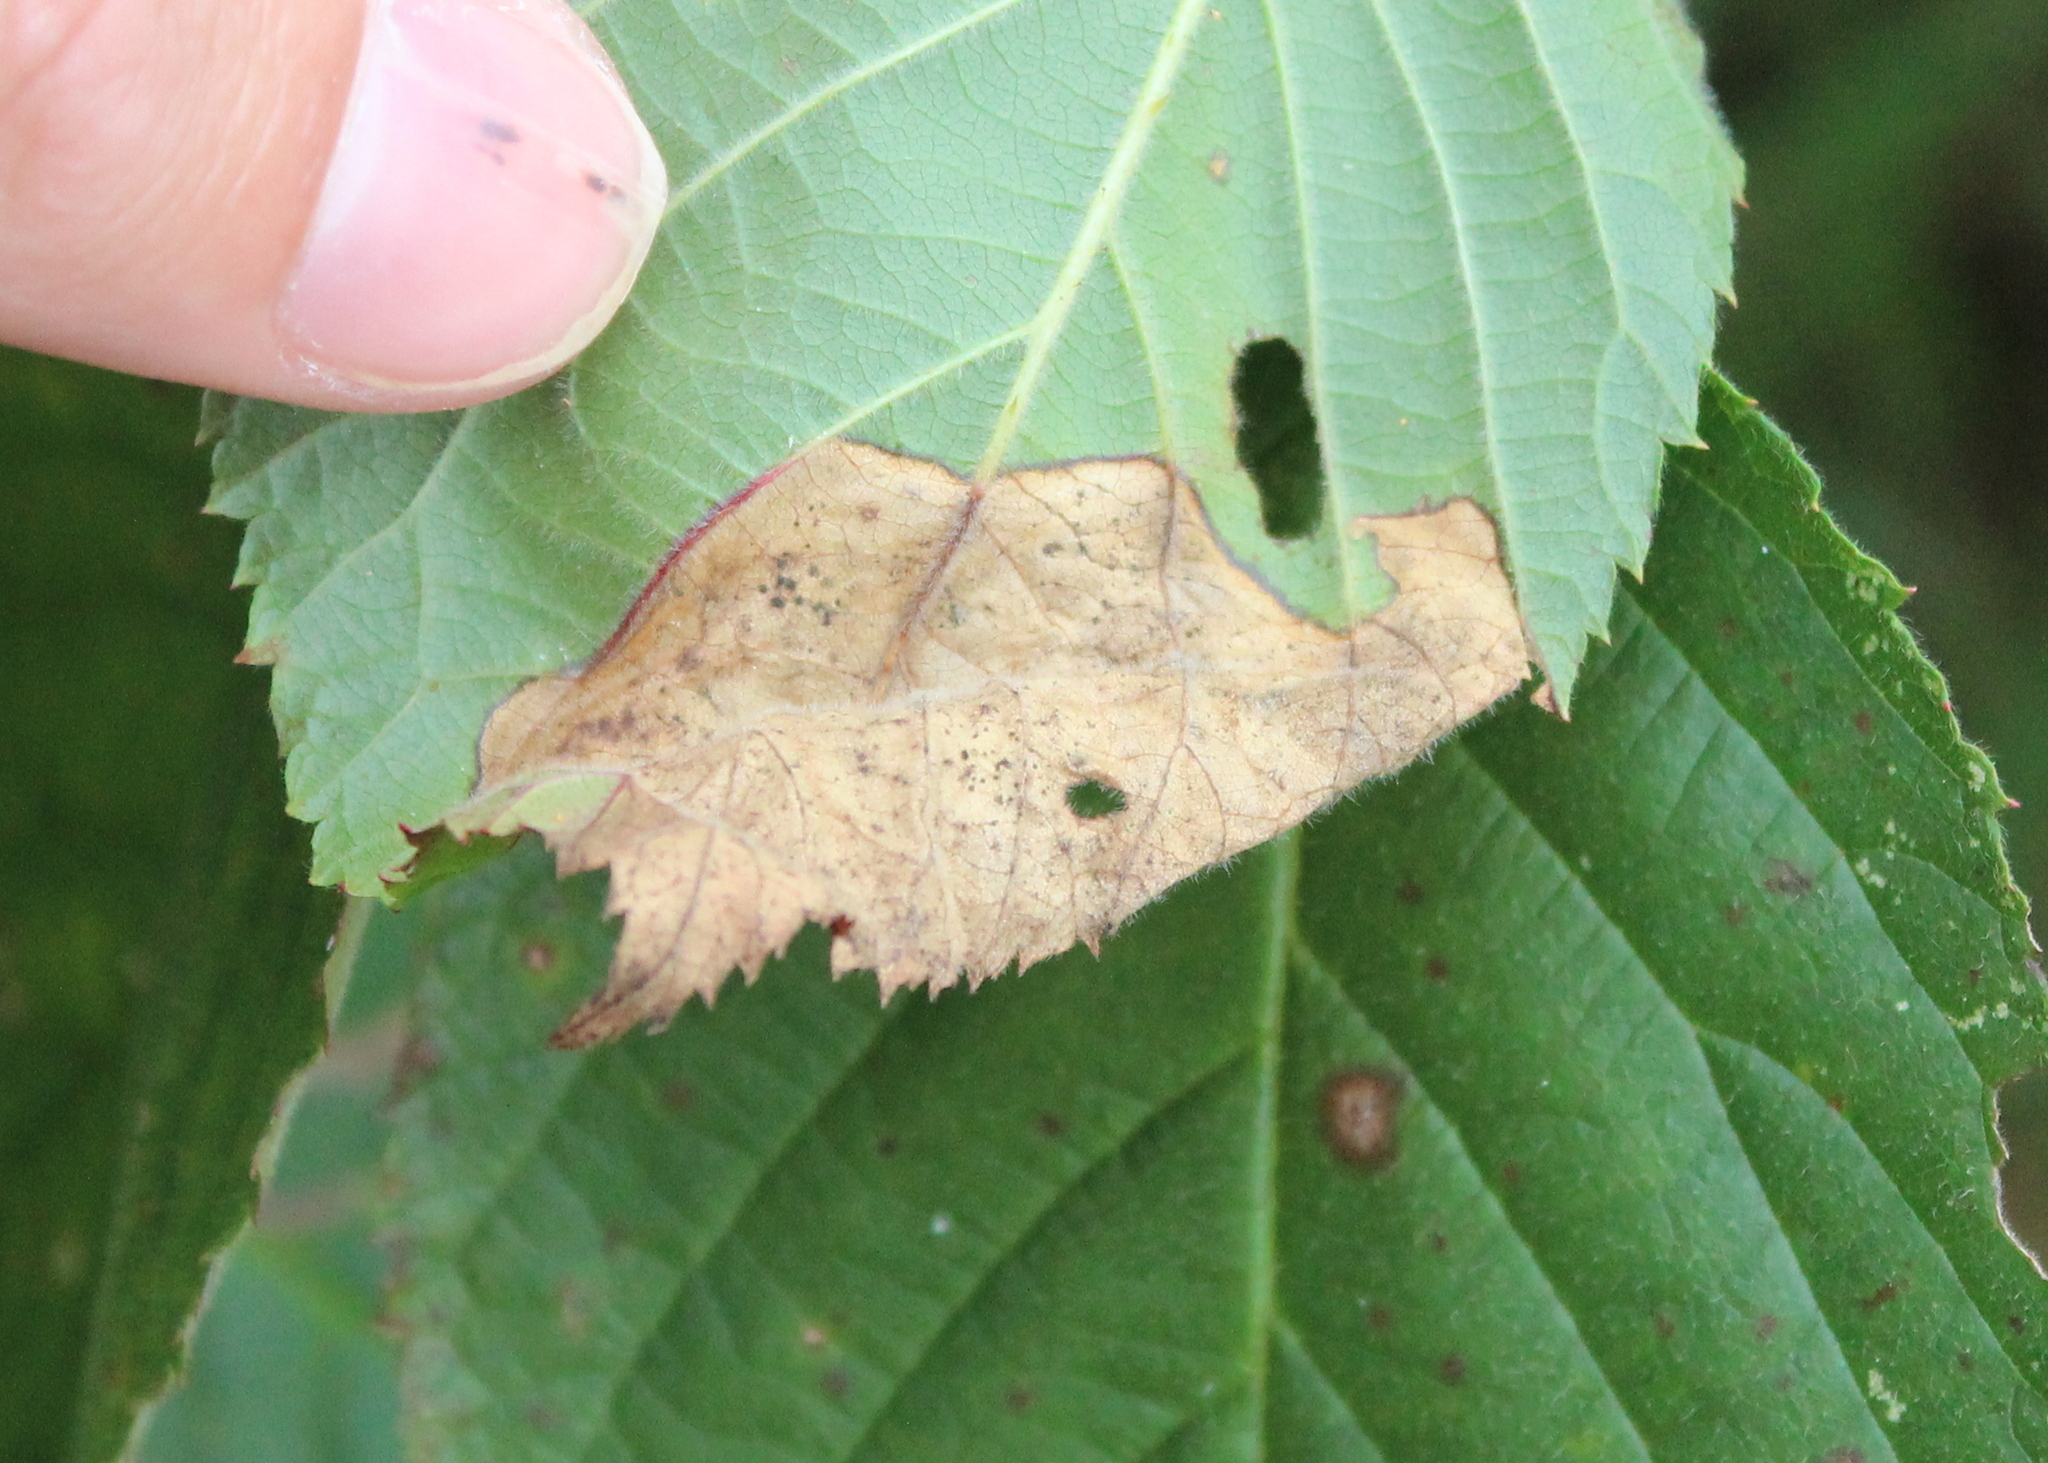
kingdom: Animalia
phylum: Arthropoda
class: Insecta
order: Hymenoptera
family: Tenthredinidae
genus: Metallus
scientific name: Metallus rohweri
